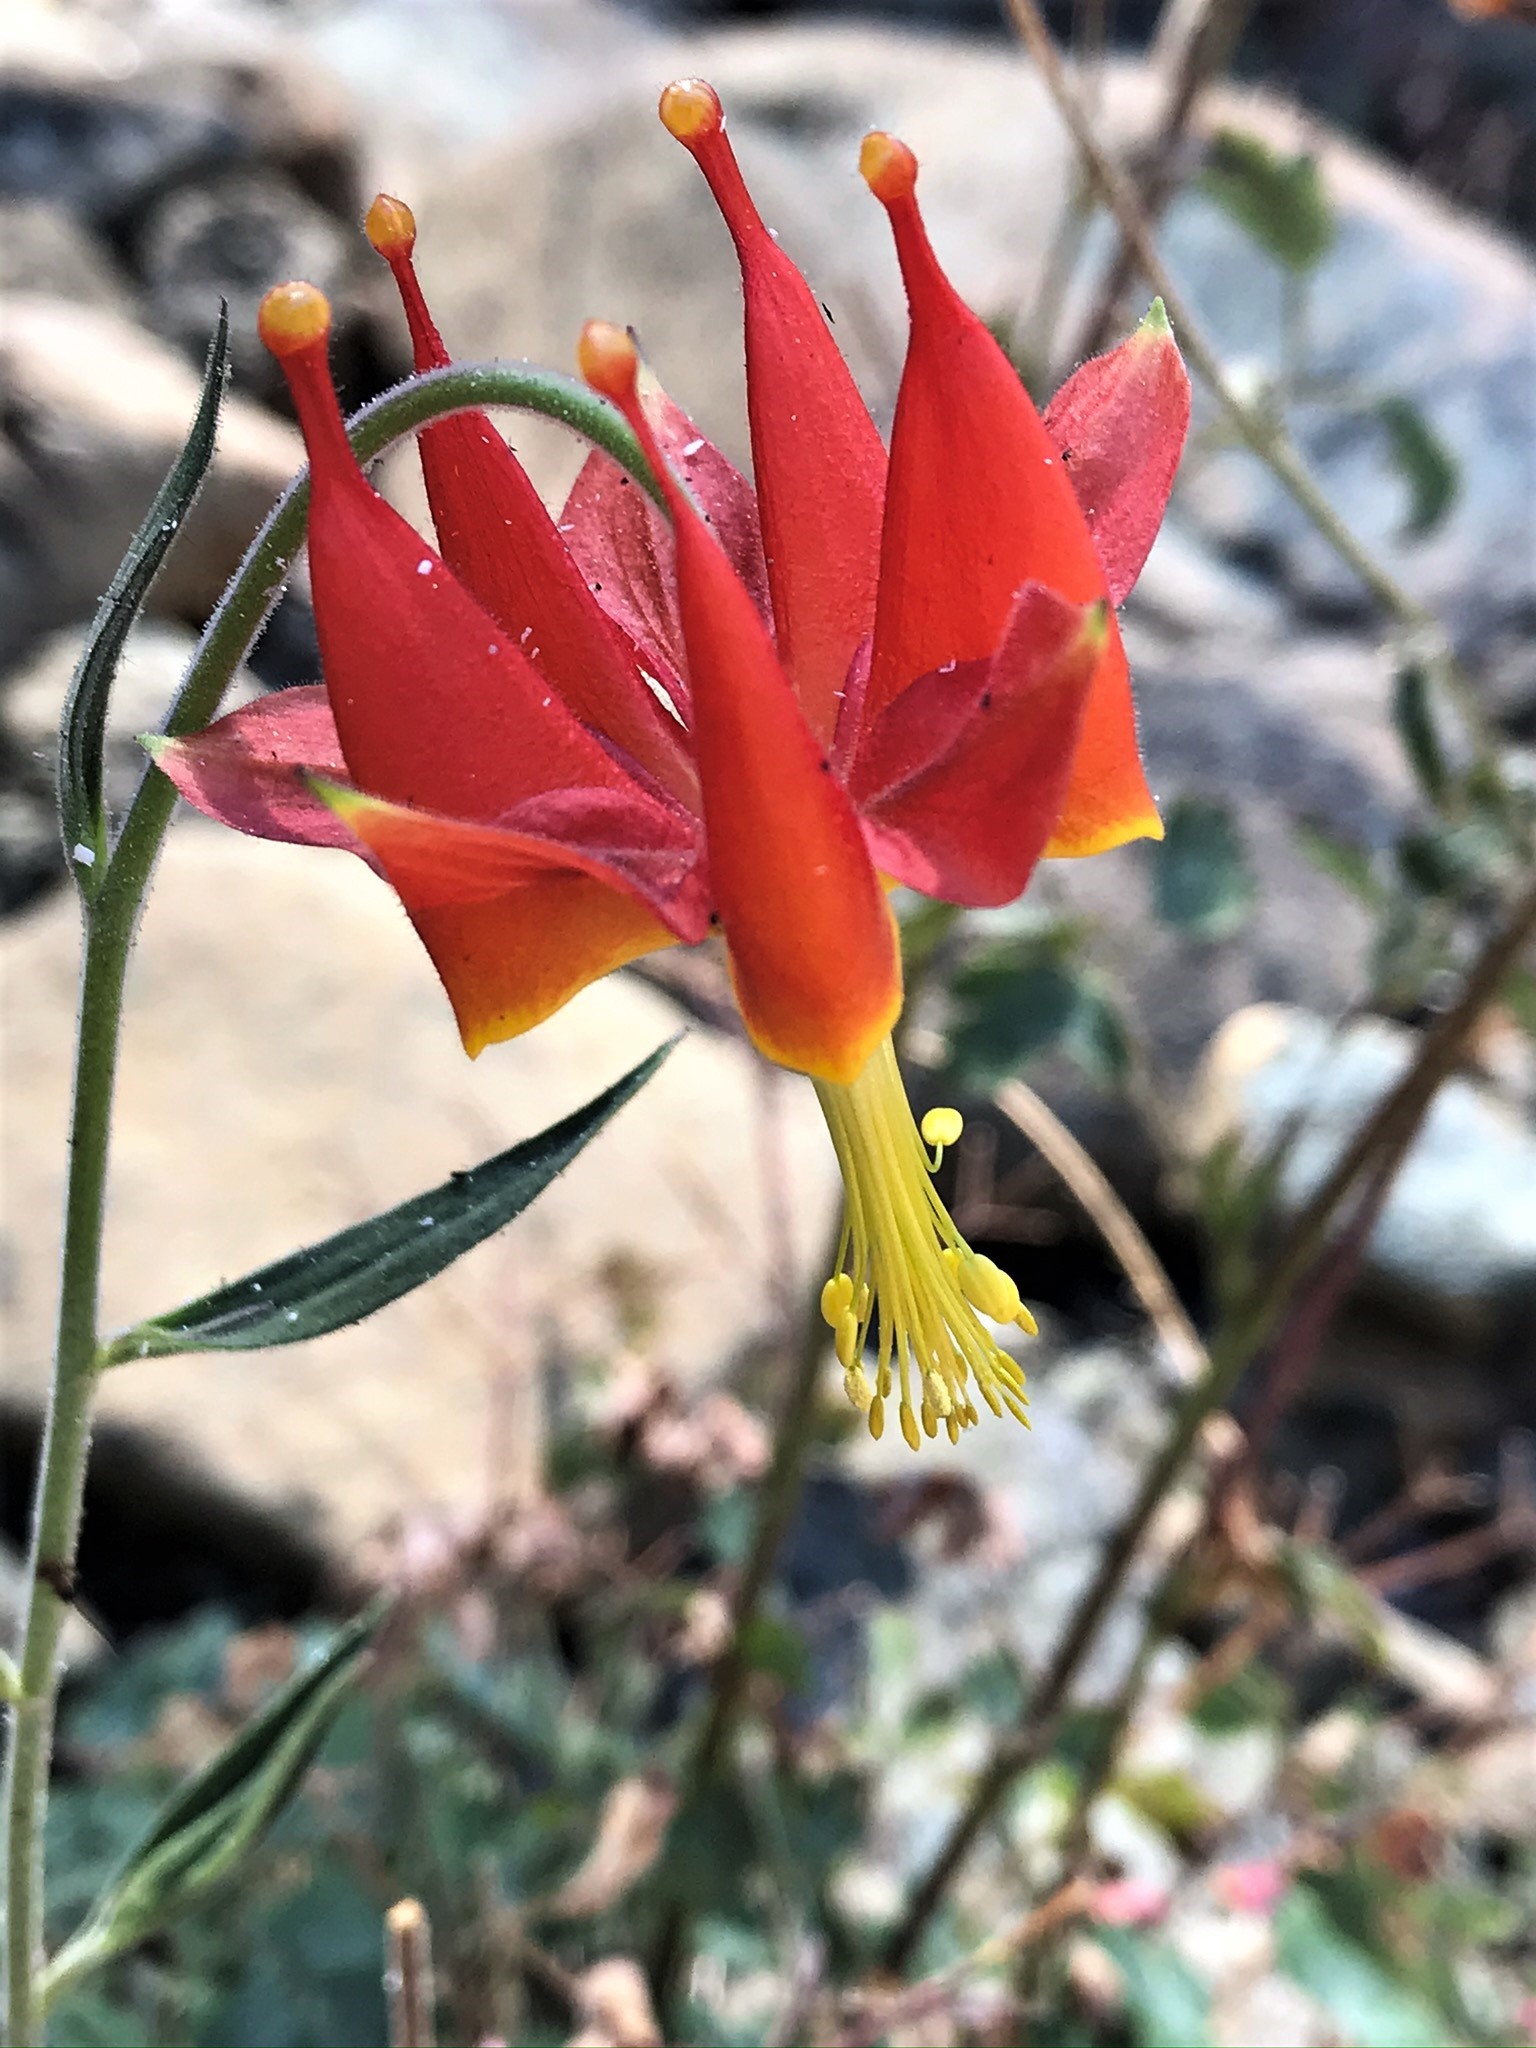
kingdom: Plantae
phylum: Tracheophyta
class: Magnoliopsida
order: Ranunculales
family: Ranunculaceae
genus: Aquilegia
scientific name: Aquilegia eximia
